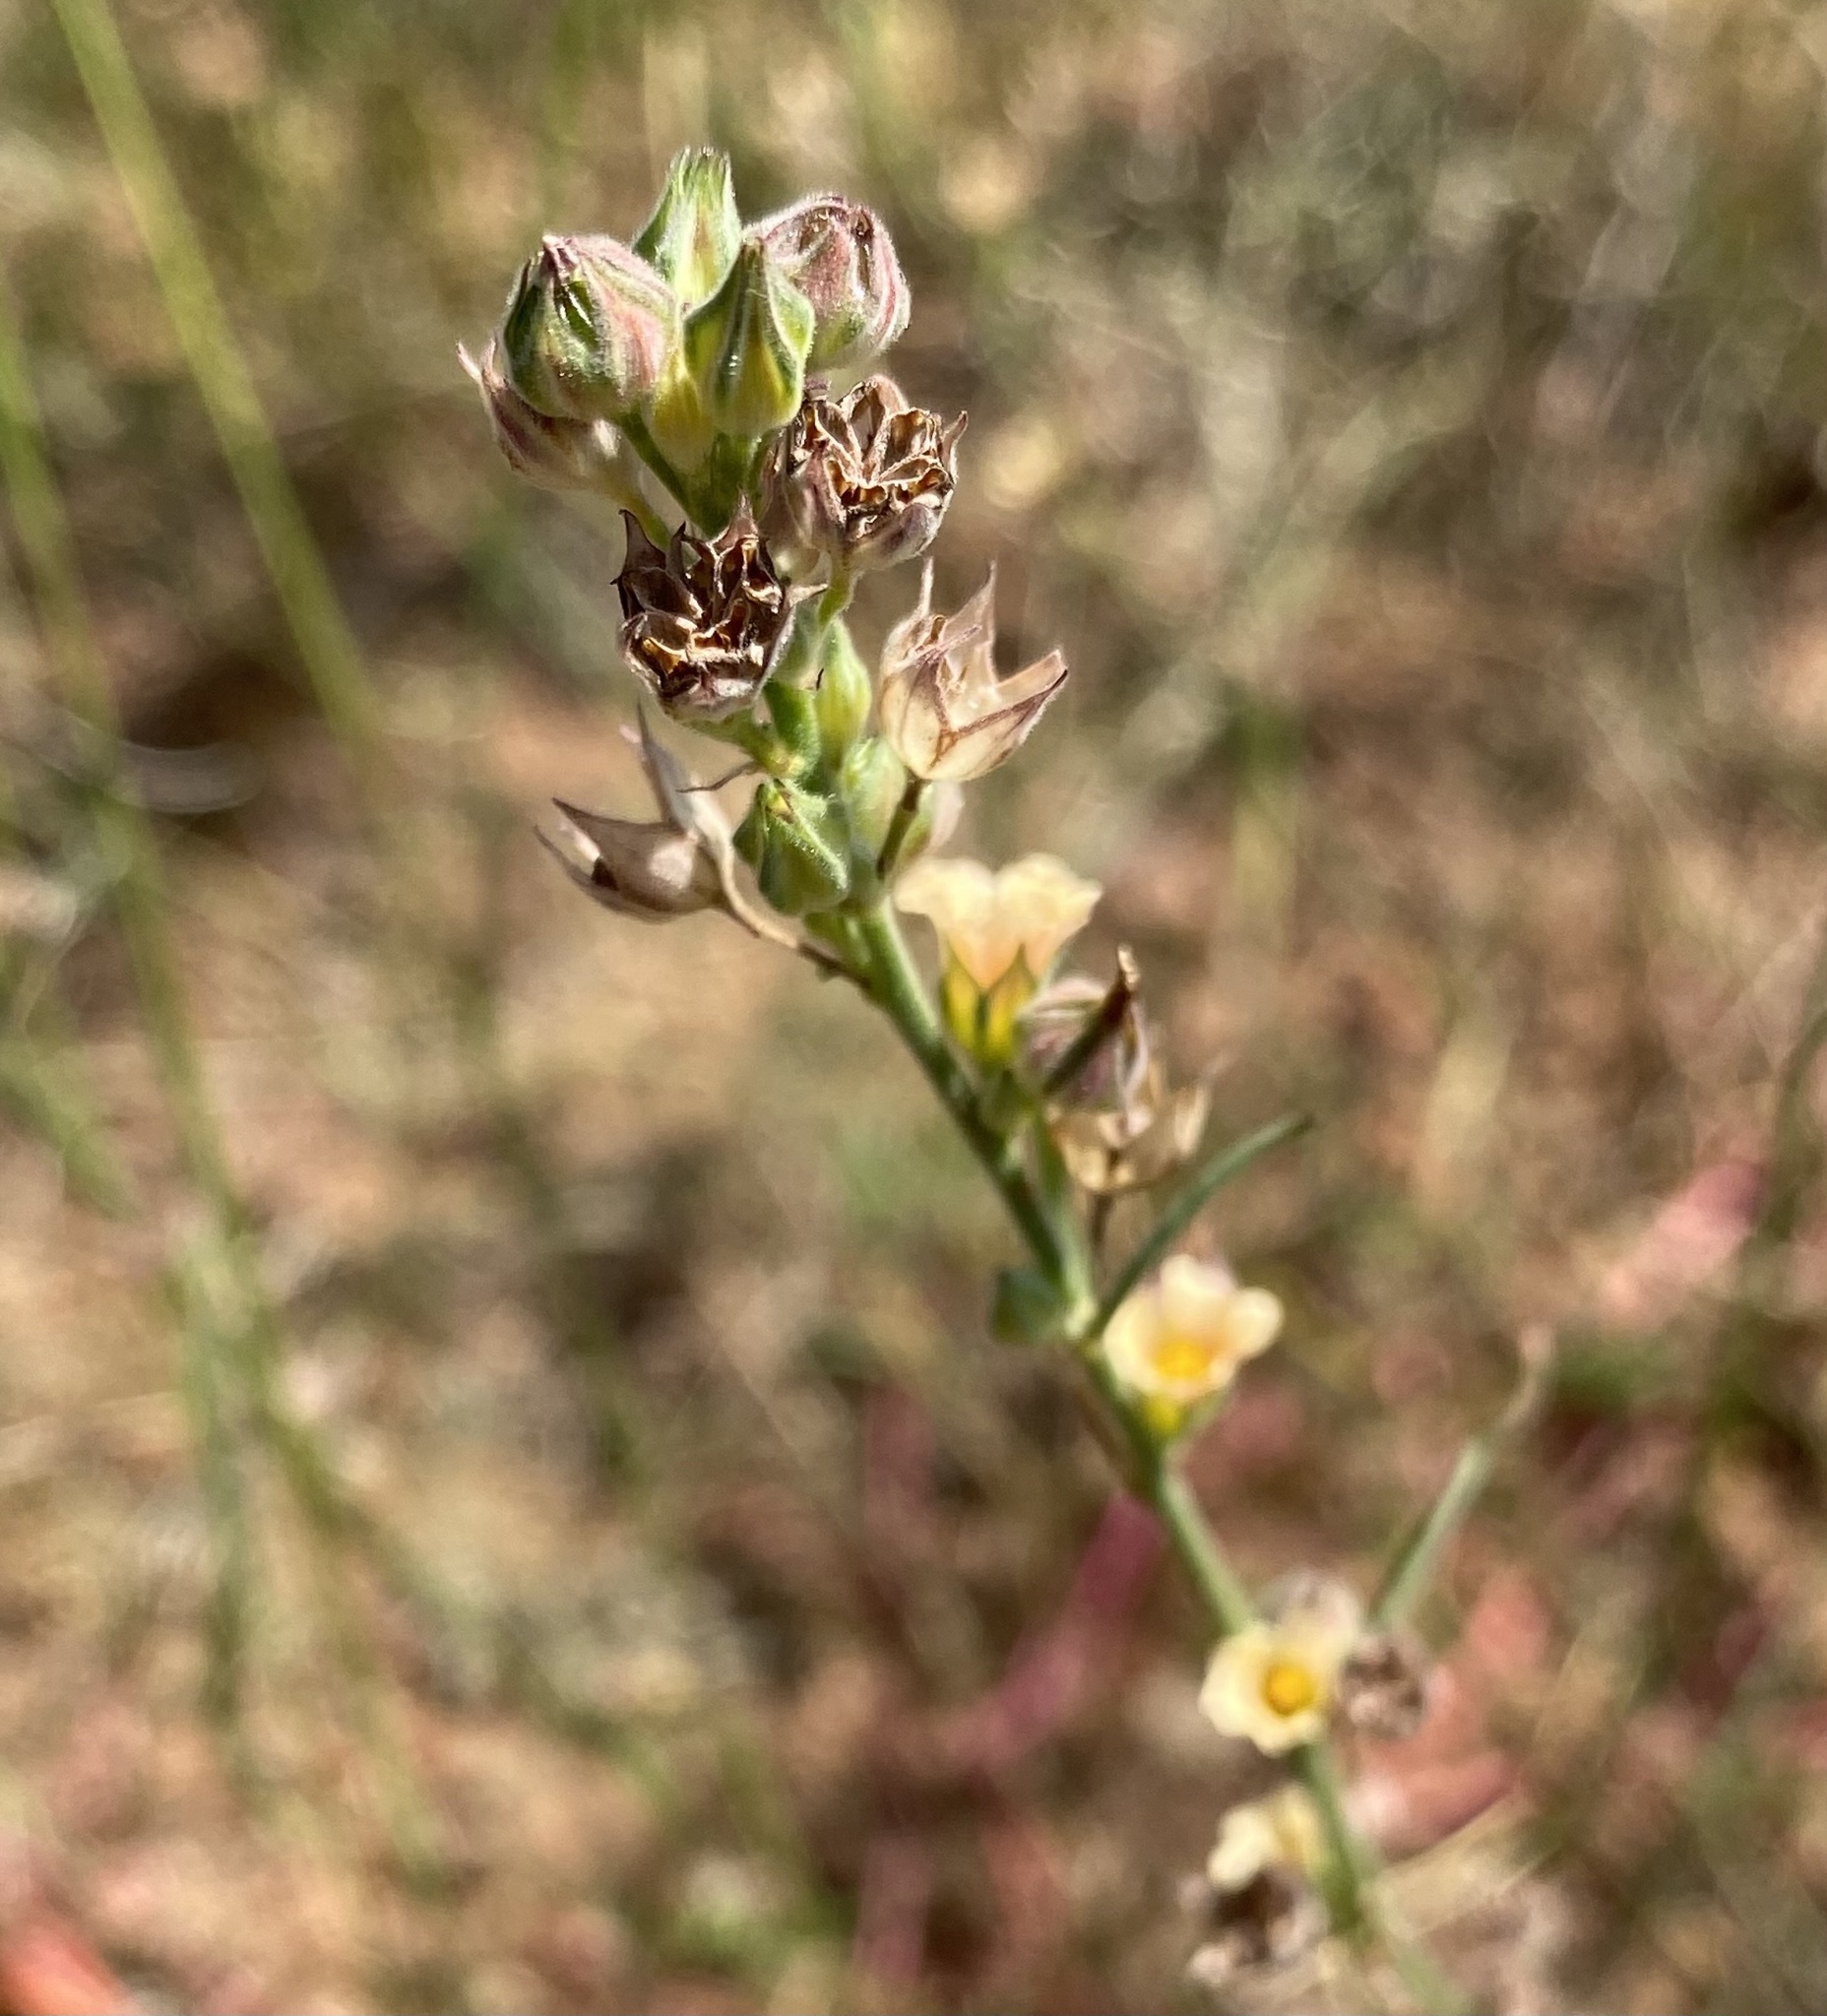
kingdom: Plantae
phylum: Tracheophyta
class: Magnoliopsida
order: Malvales
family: Malvaceae
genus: Sida
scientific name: Sida spinosa
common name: Prickly fanpetals
